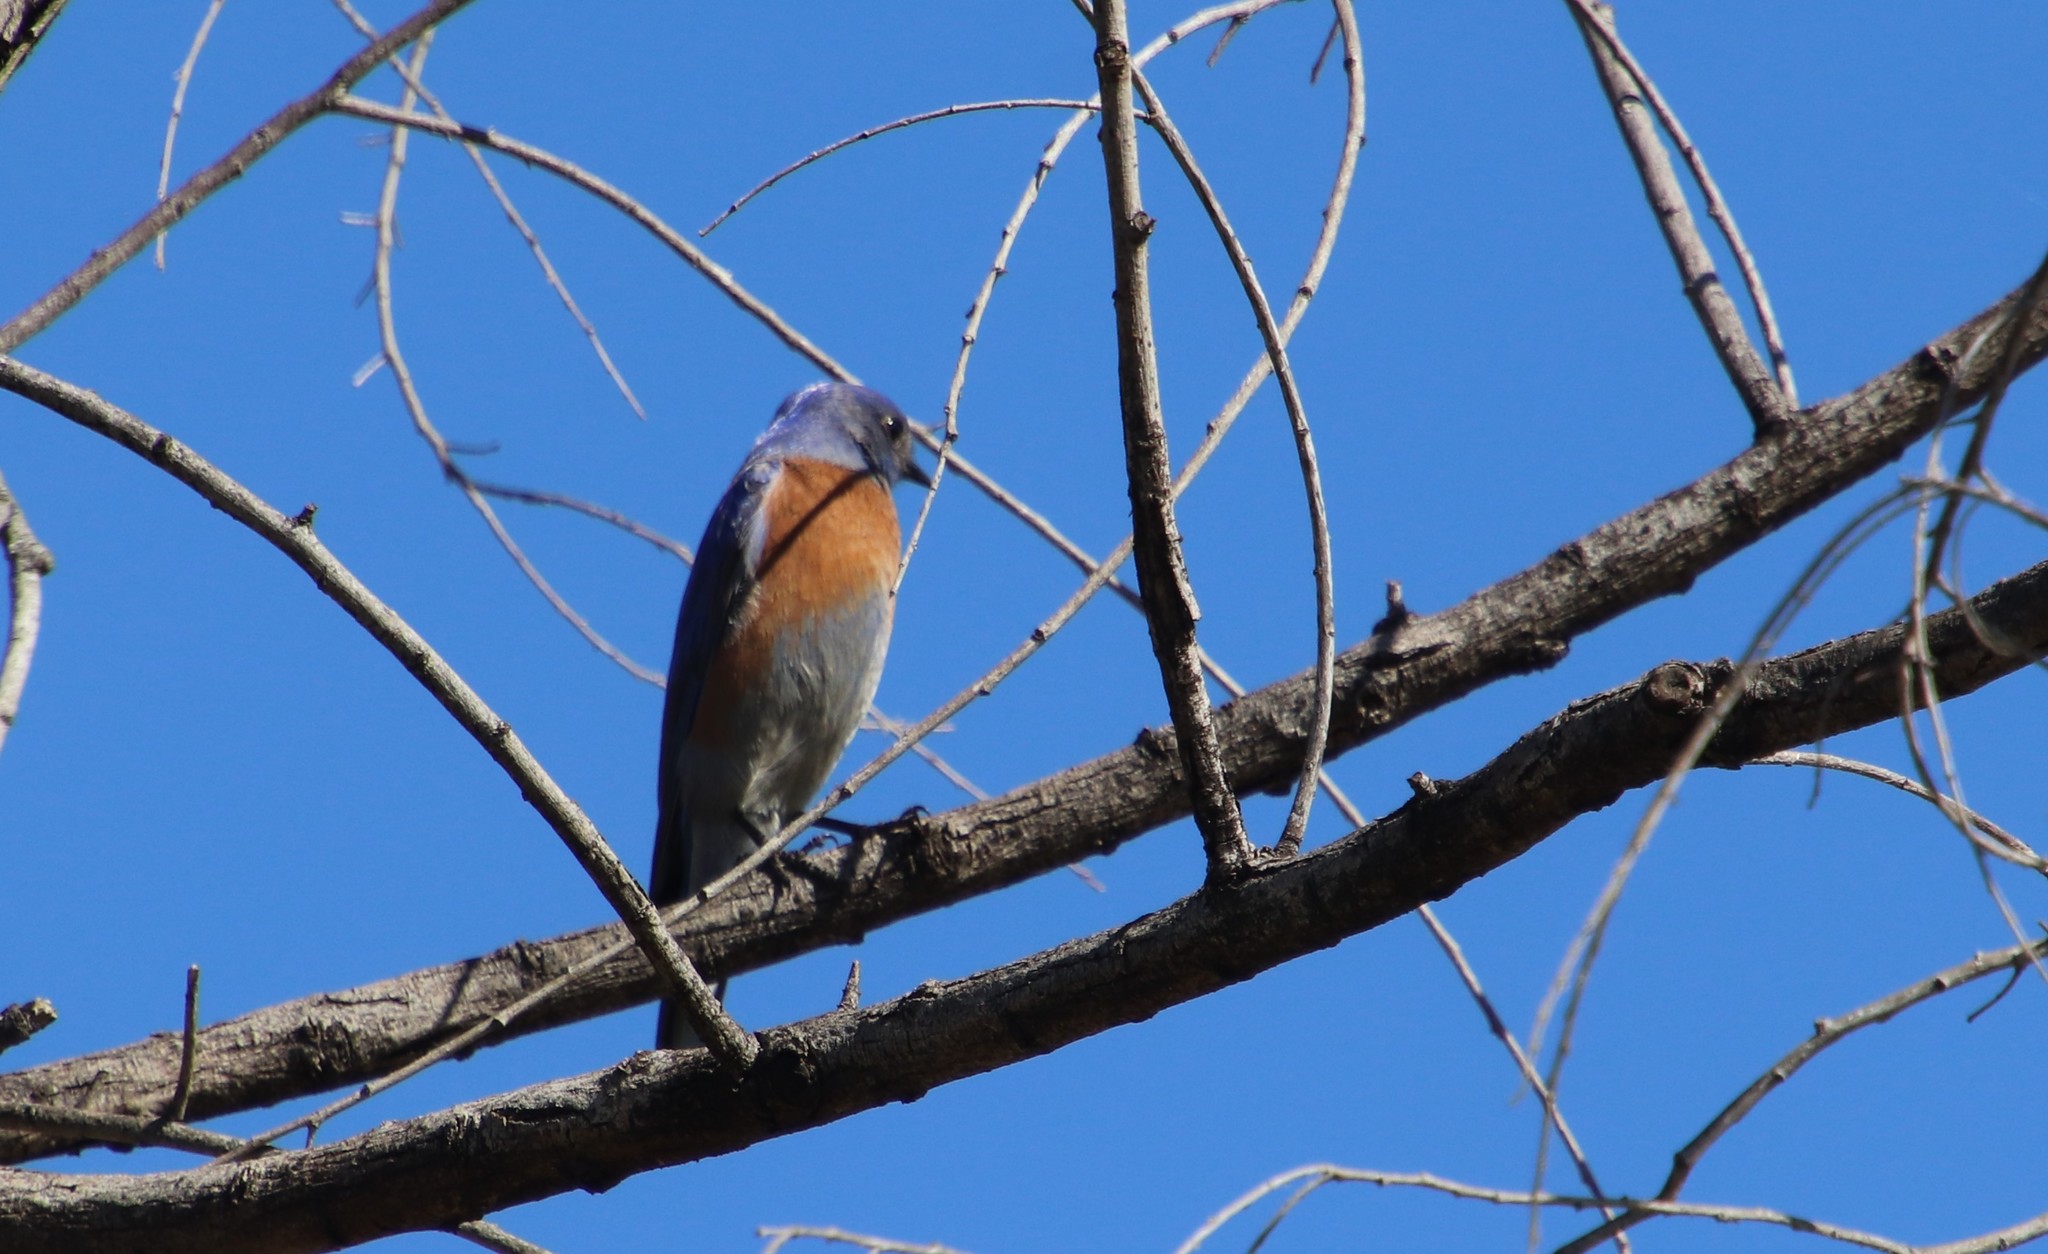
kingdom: Animalia
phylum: Chordata
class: Aves
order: Passeriformes
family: Turdidae
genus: Sialia
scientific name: Sialia mexicana
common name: Western bluebird
